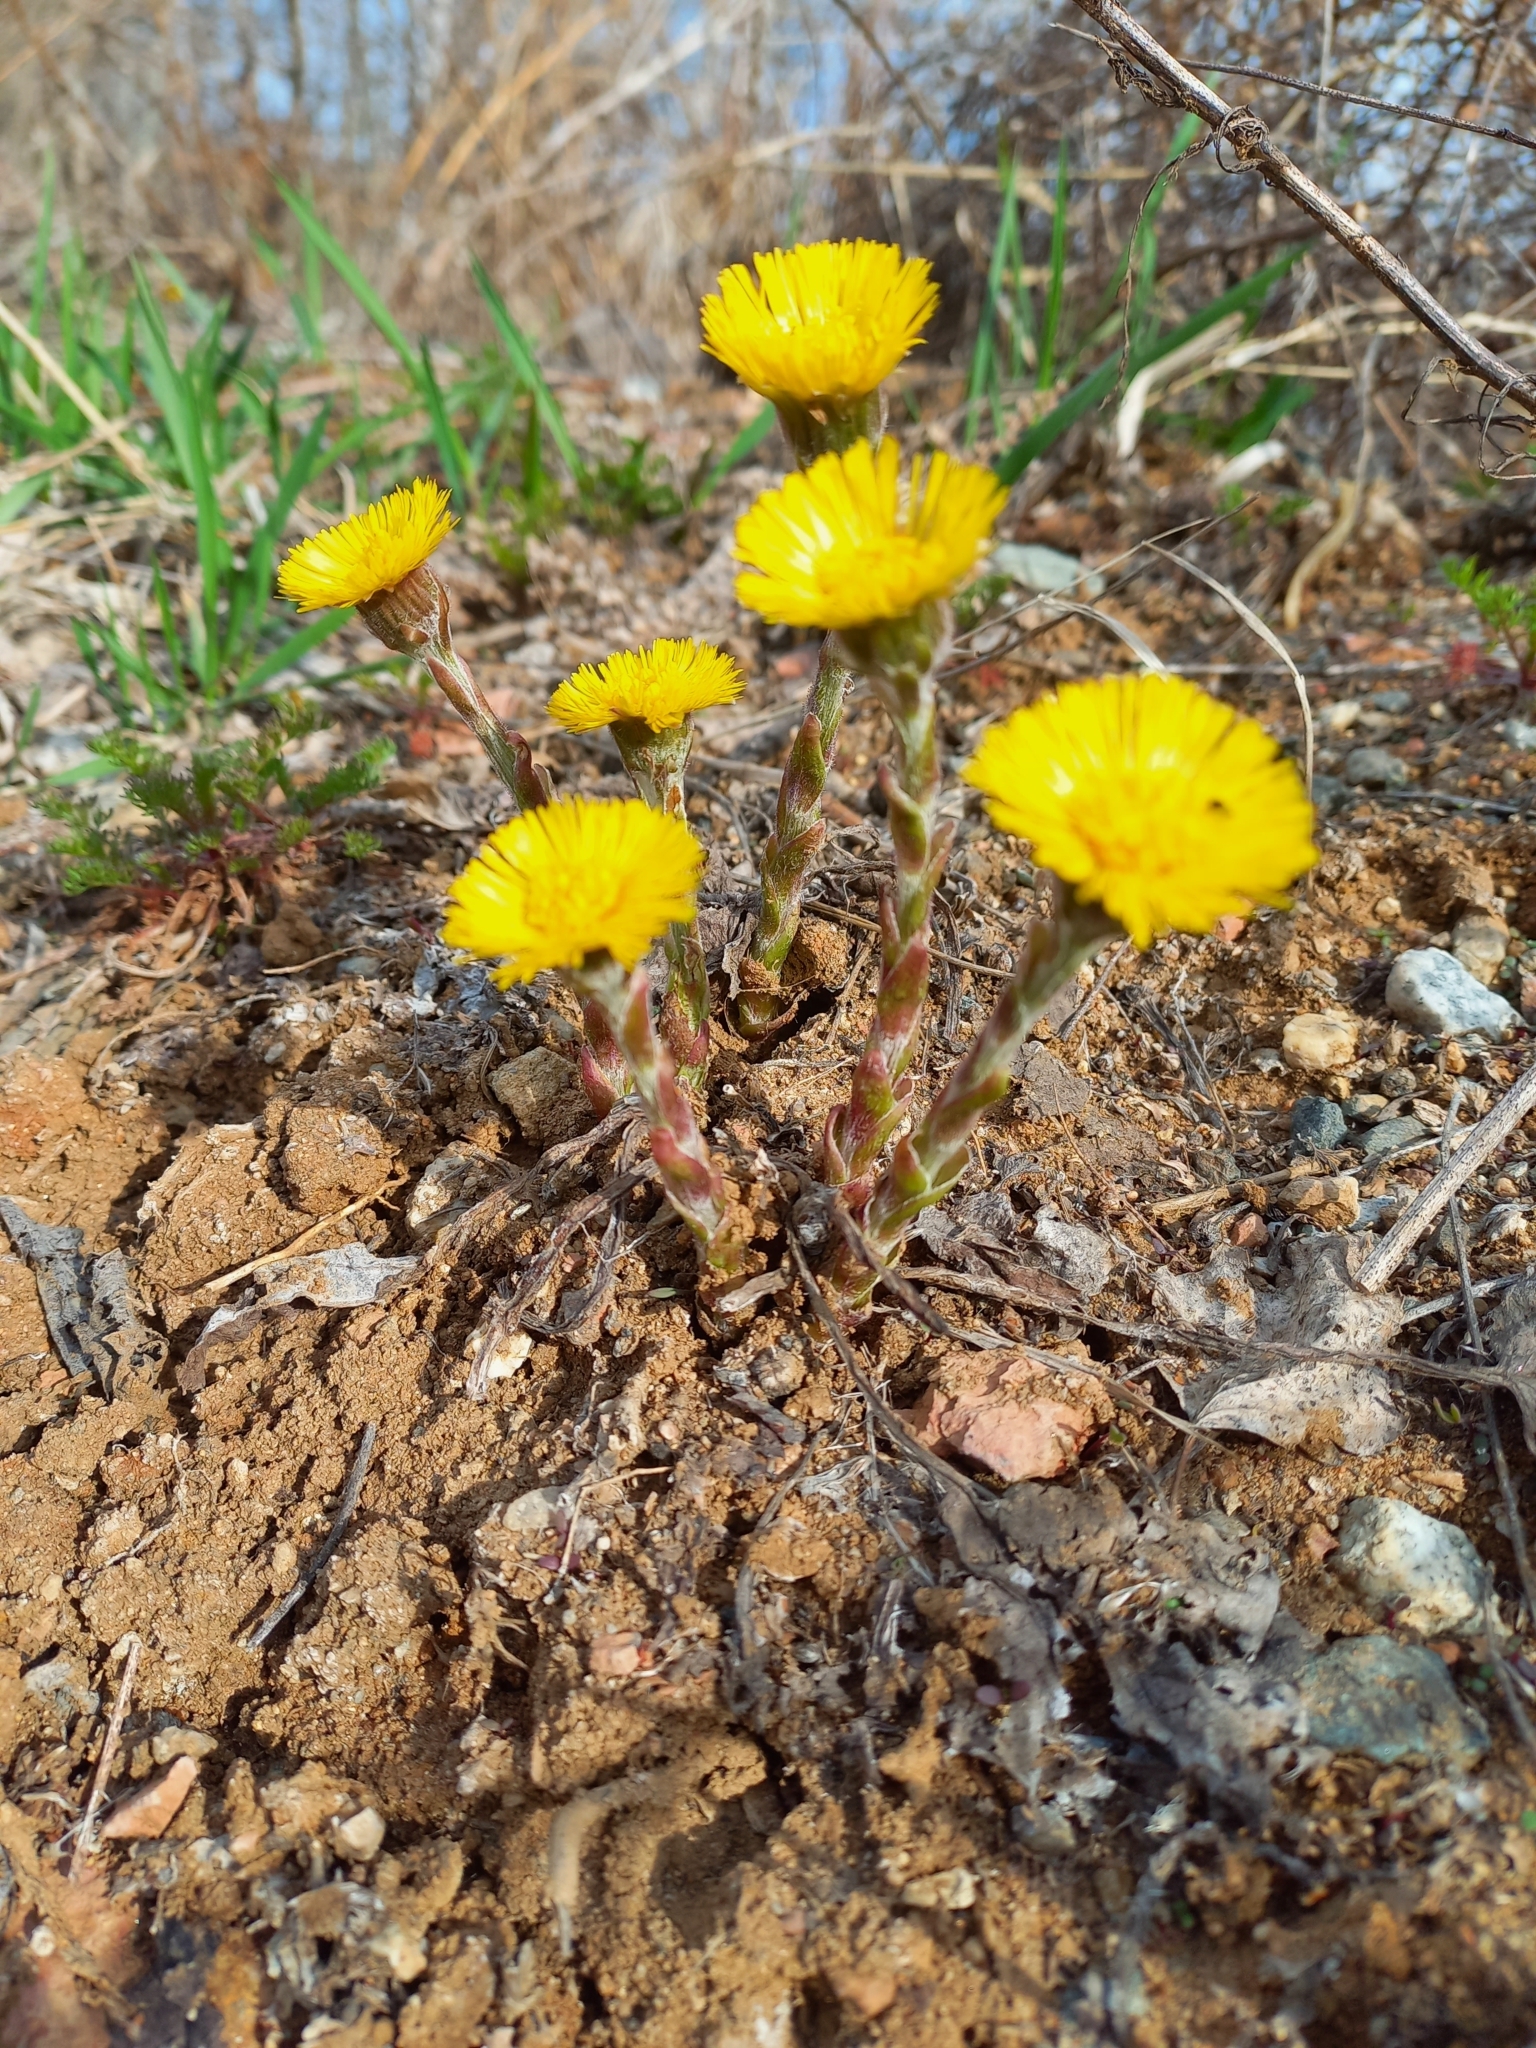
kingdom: Plantae
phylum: Tracheophyta
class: Magnoliopsida
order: Asterales
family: Asteraceae
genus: Tussilago
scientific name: Tussilago farfara
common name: Coltsfoot
